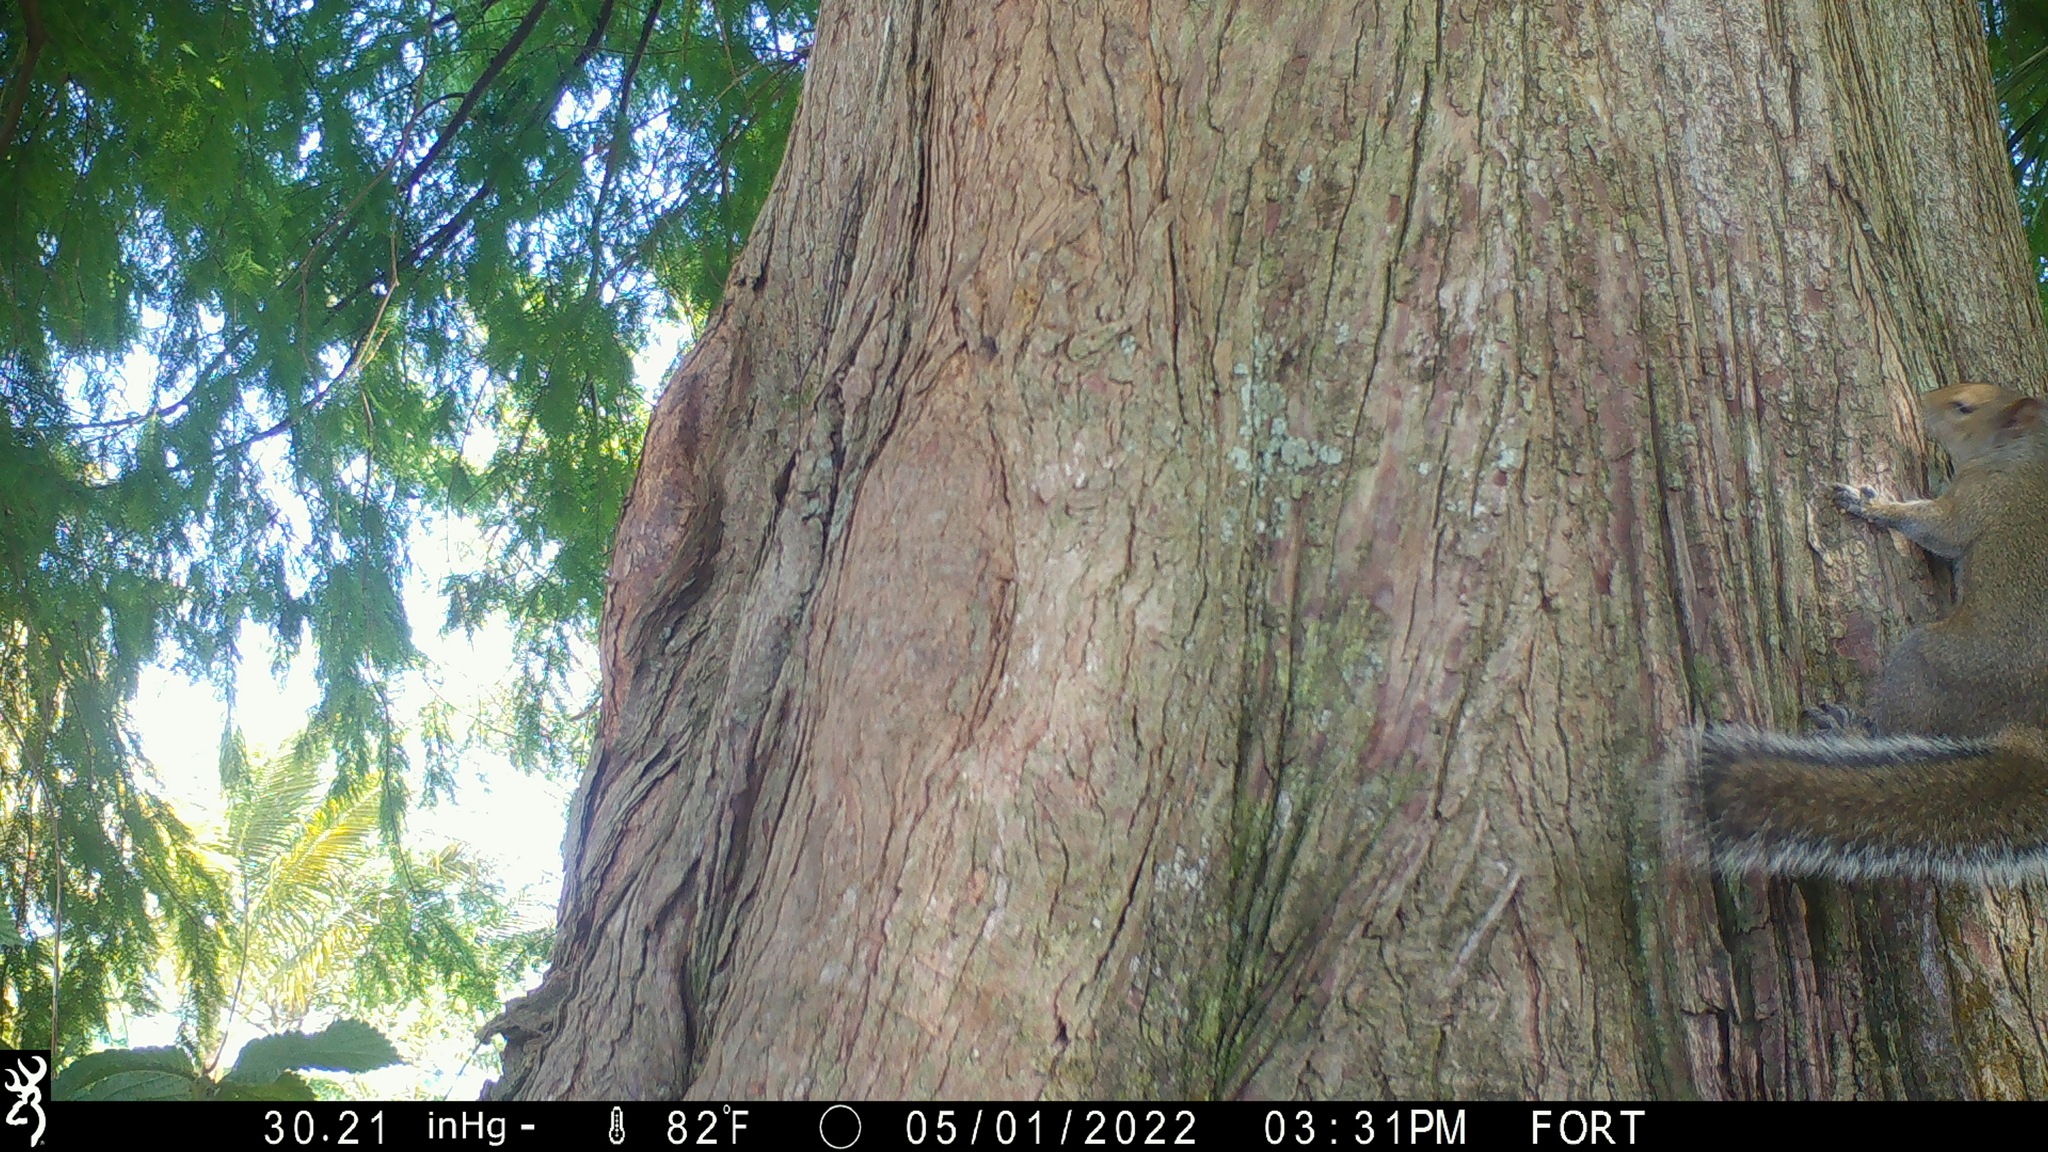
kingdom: Animalia
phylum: Chordata
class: Mammalia
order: Rodentia
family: Sciuridae
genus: Sciurus
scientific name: Sciurus carolinensis
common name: Eastern gray squirrel
